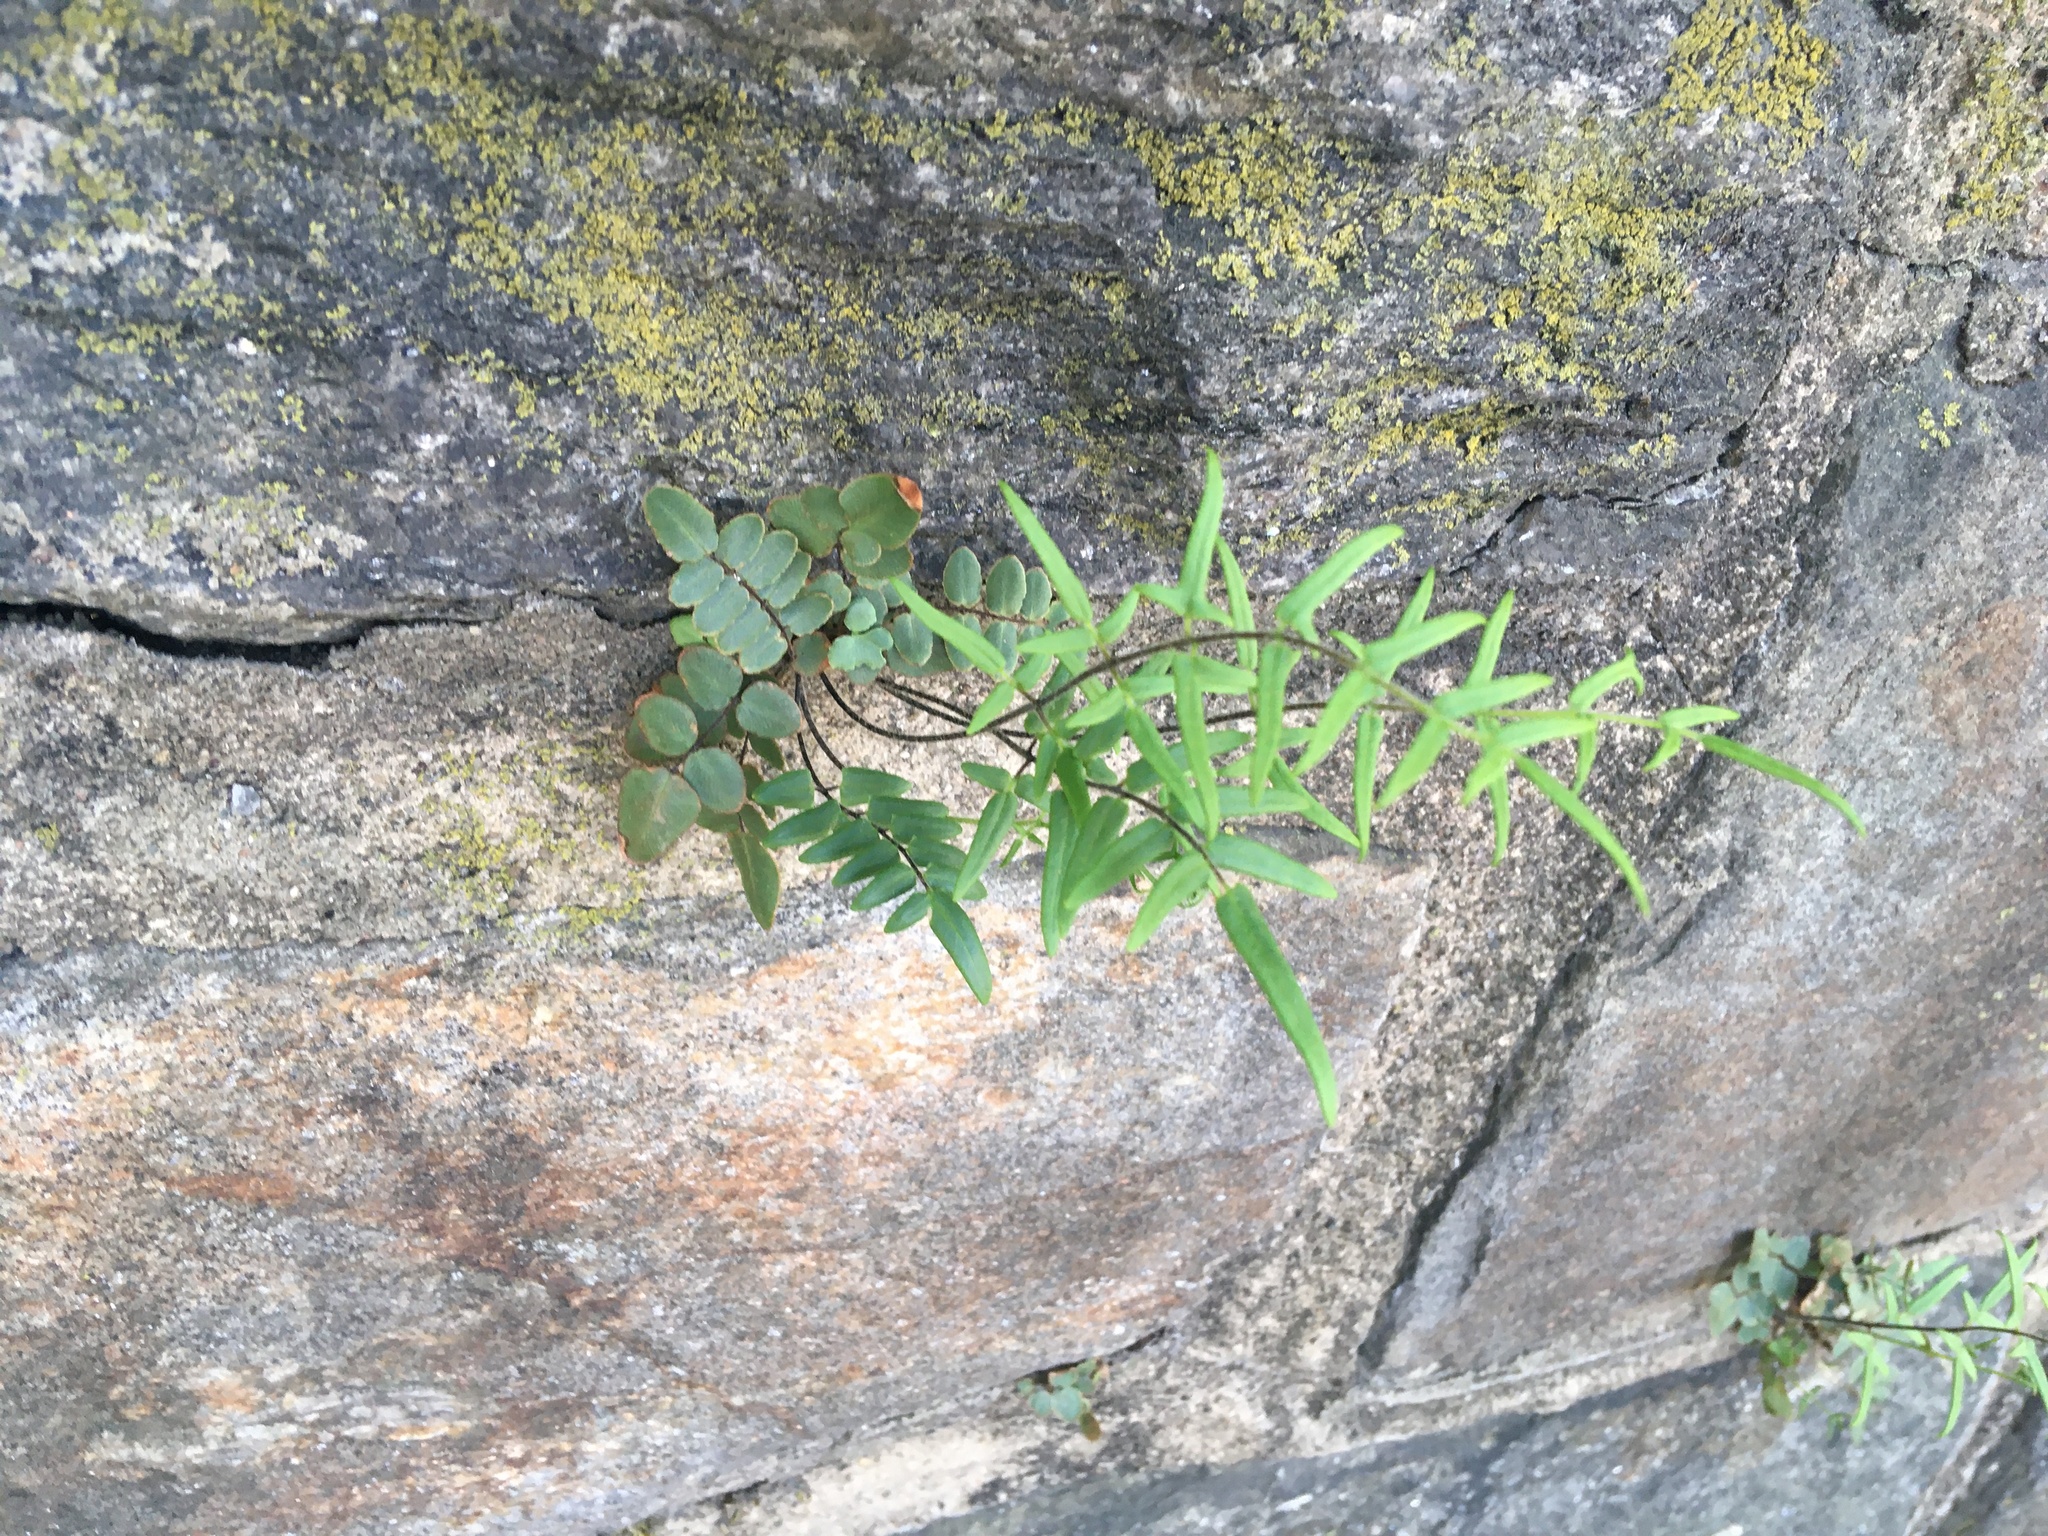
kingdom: Plantae
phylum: Tracheophyta
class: Polypodiopsida
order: Polypodiales
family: Pteridaceae
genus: Pellaea
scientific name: Pellaea atropurpurea
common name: Hairy cliffbrake
